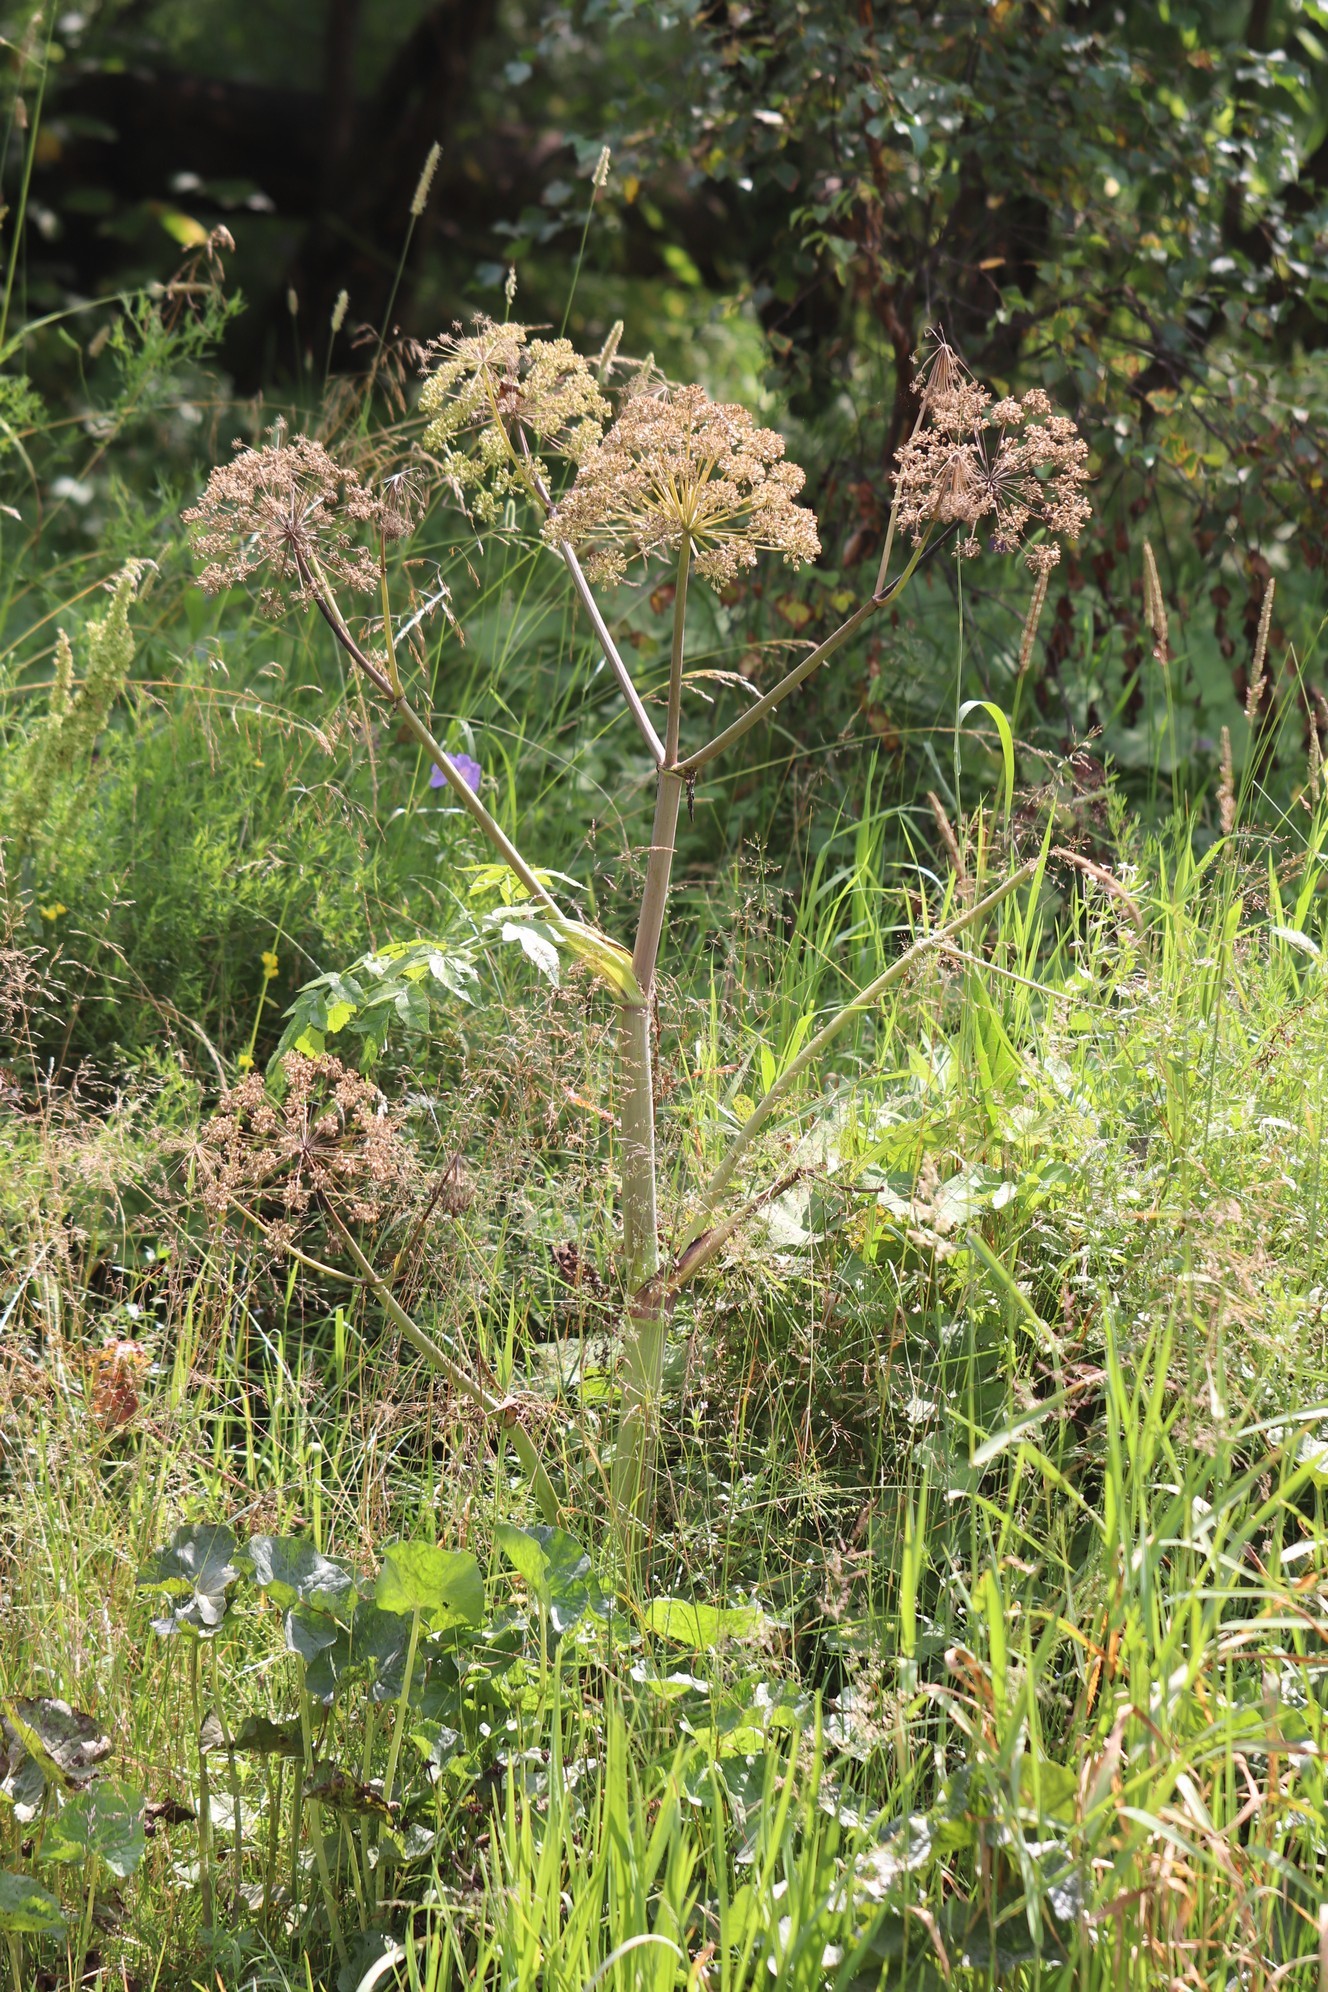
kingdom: Plantae
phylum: Tracheophyta
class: Magnoliopsida
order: Apiales
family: Apiaceae
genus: Angelica
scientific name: Angelica decurrens
